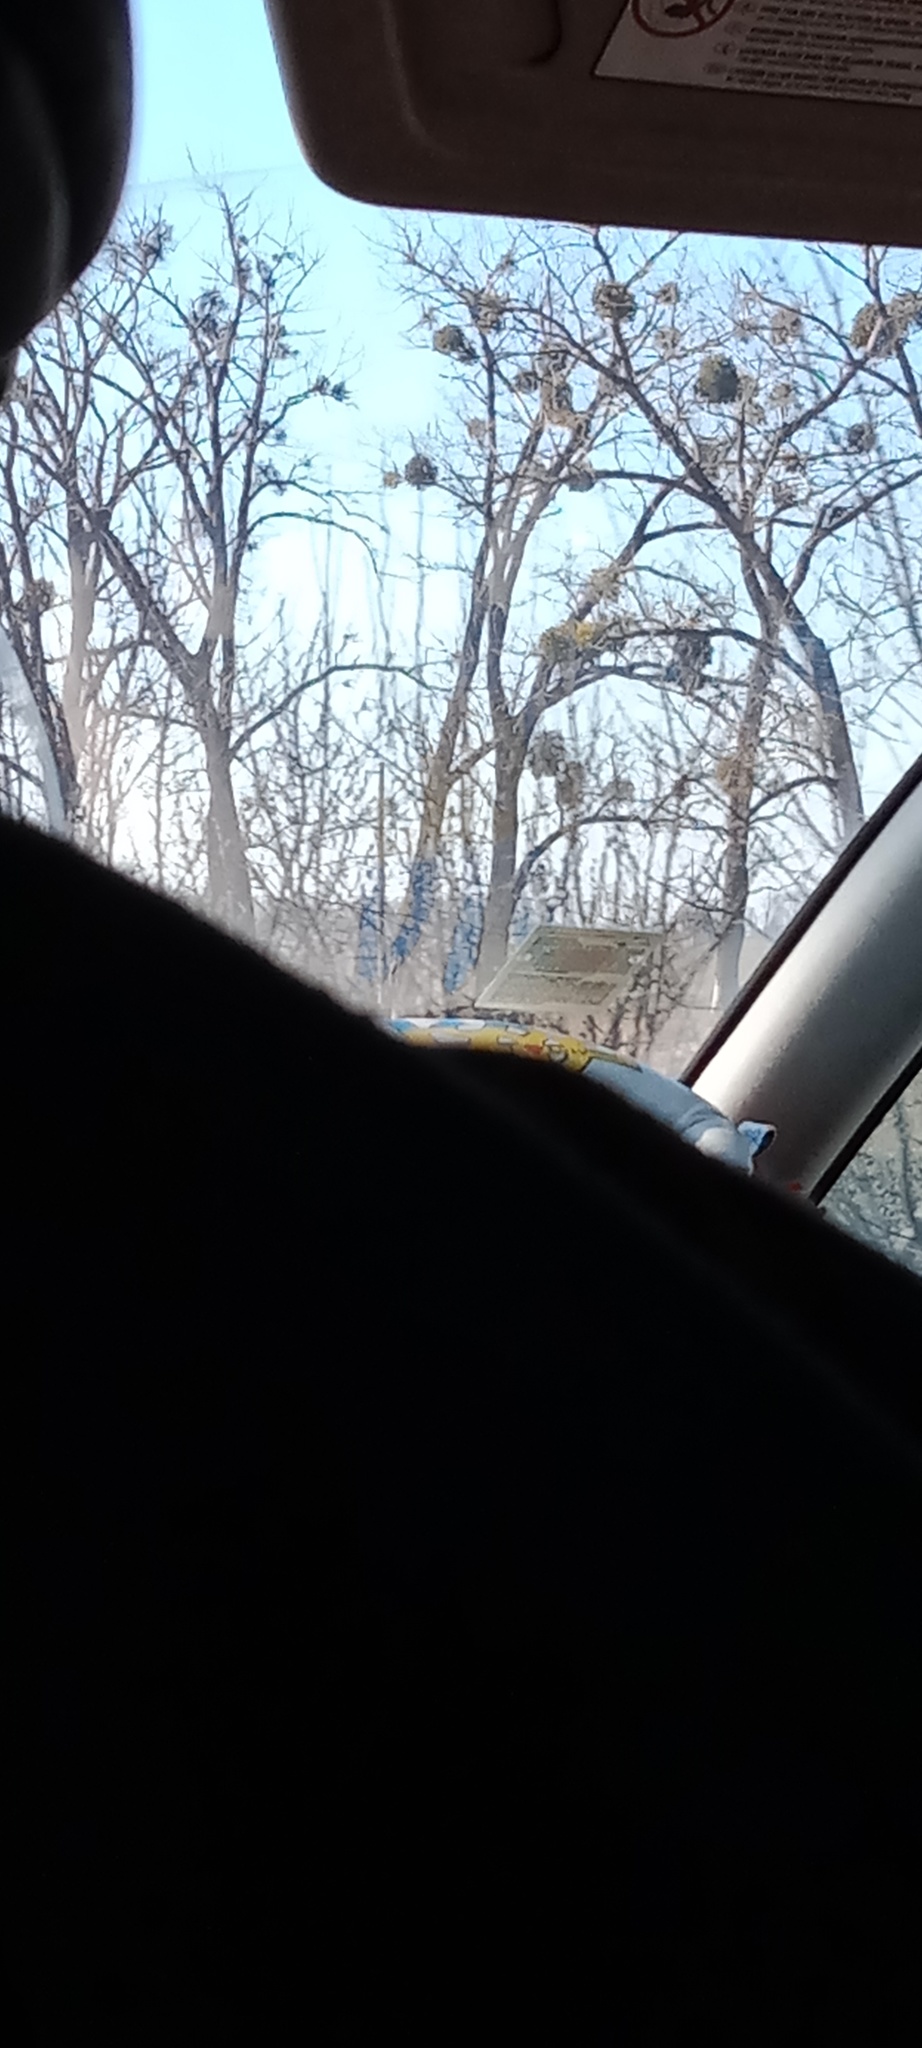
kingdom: Plantae
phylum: Tracheophyta
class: Magnoliopsida
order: Santalales
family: Viscaceae
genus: Viscum
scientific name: Viscum album
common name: Mistletoe
